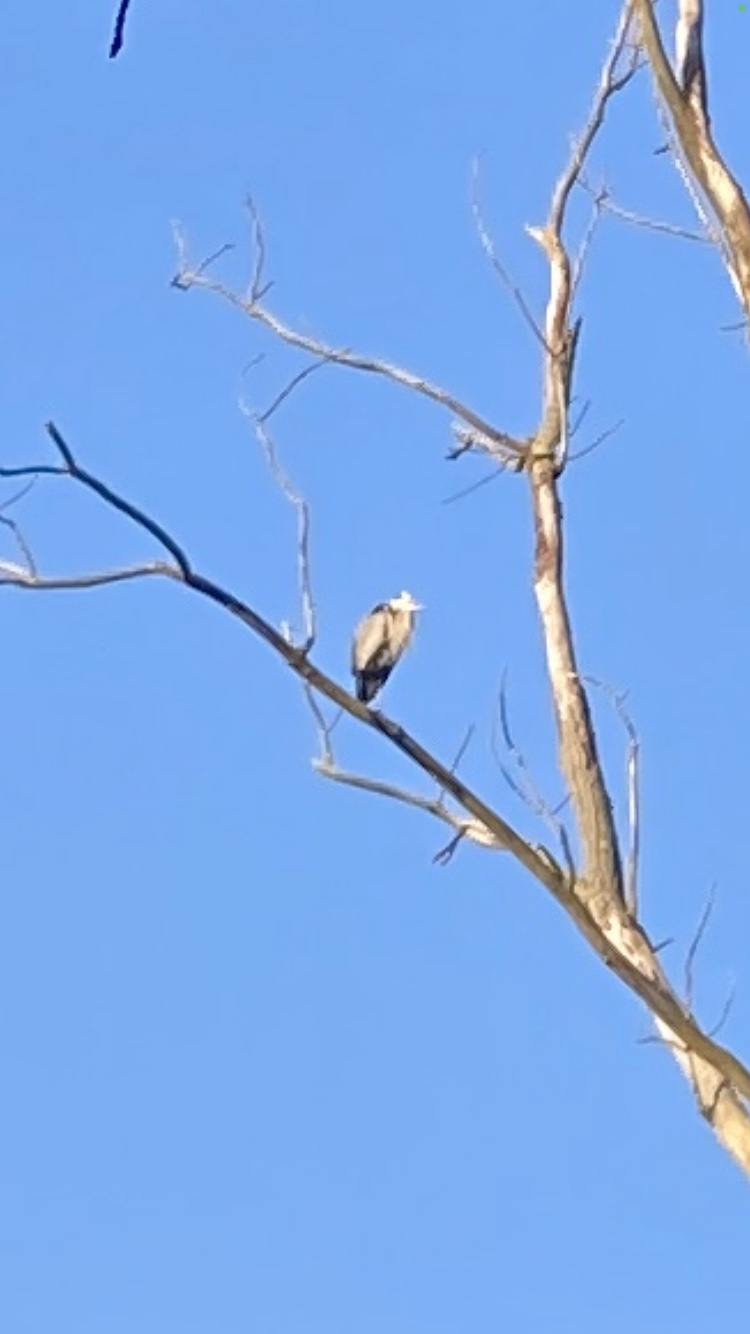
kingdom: Animalia
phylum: Chordata
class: Aves
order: Pelecaniformes
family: Ardeidae
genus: Ardea
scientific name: Ardea herodias
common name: Great blue heron
